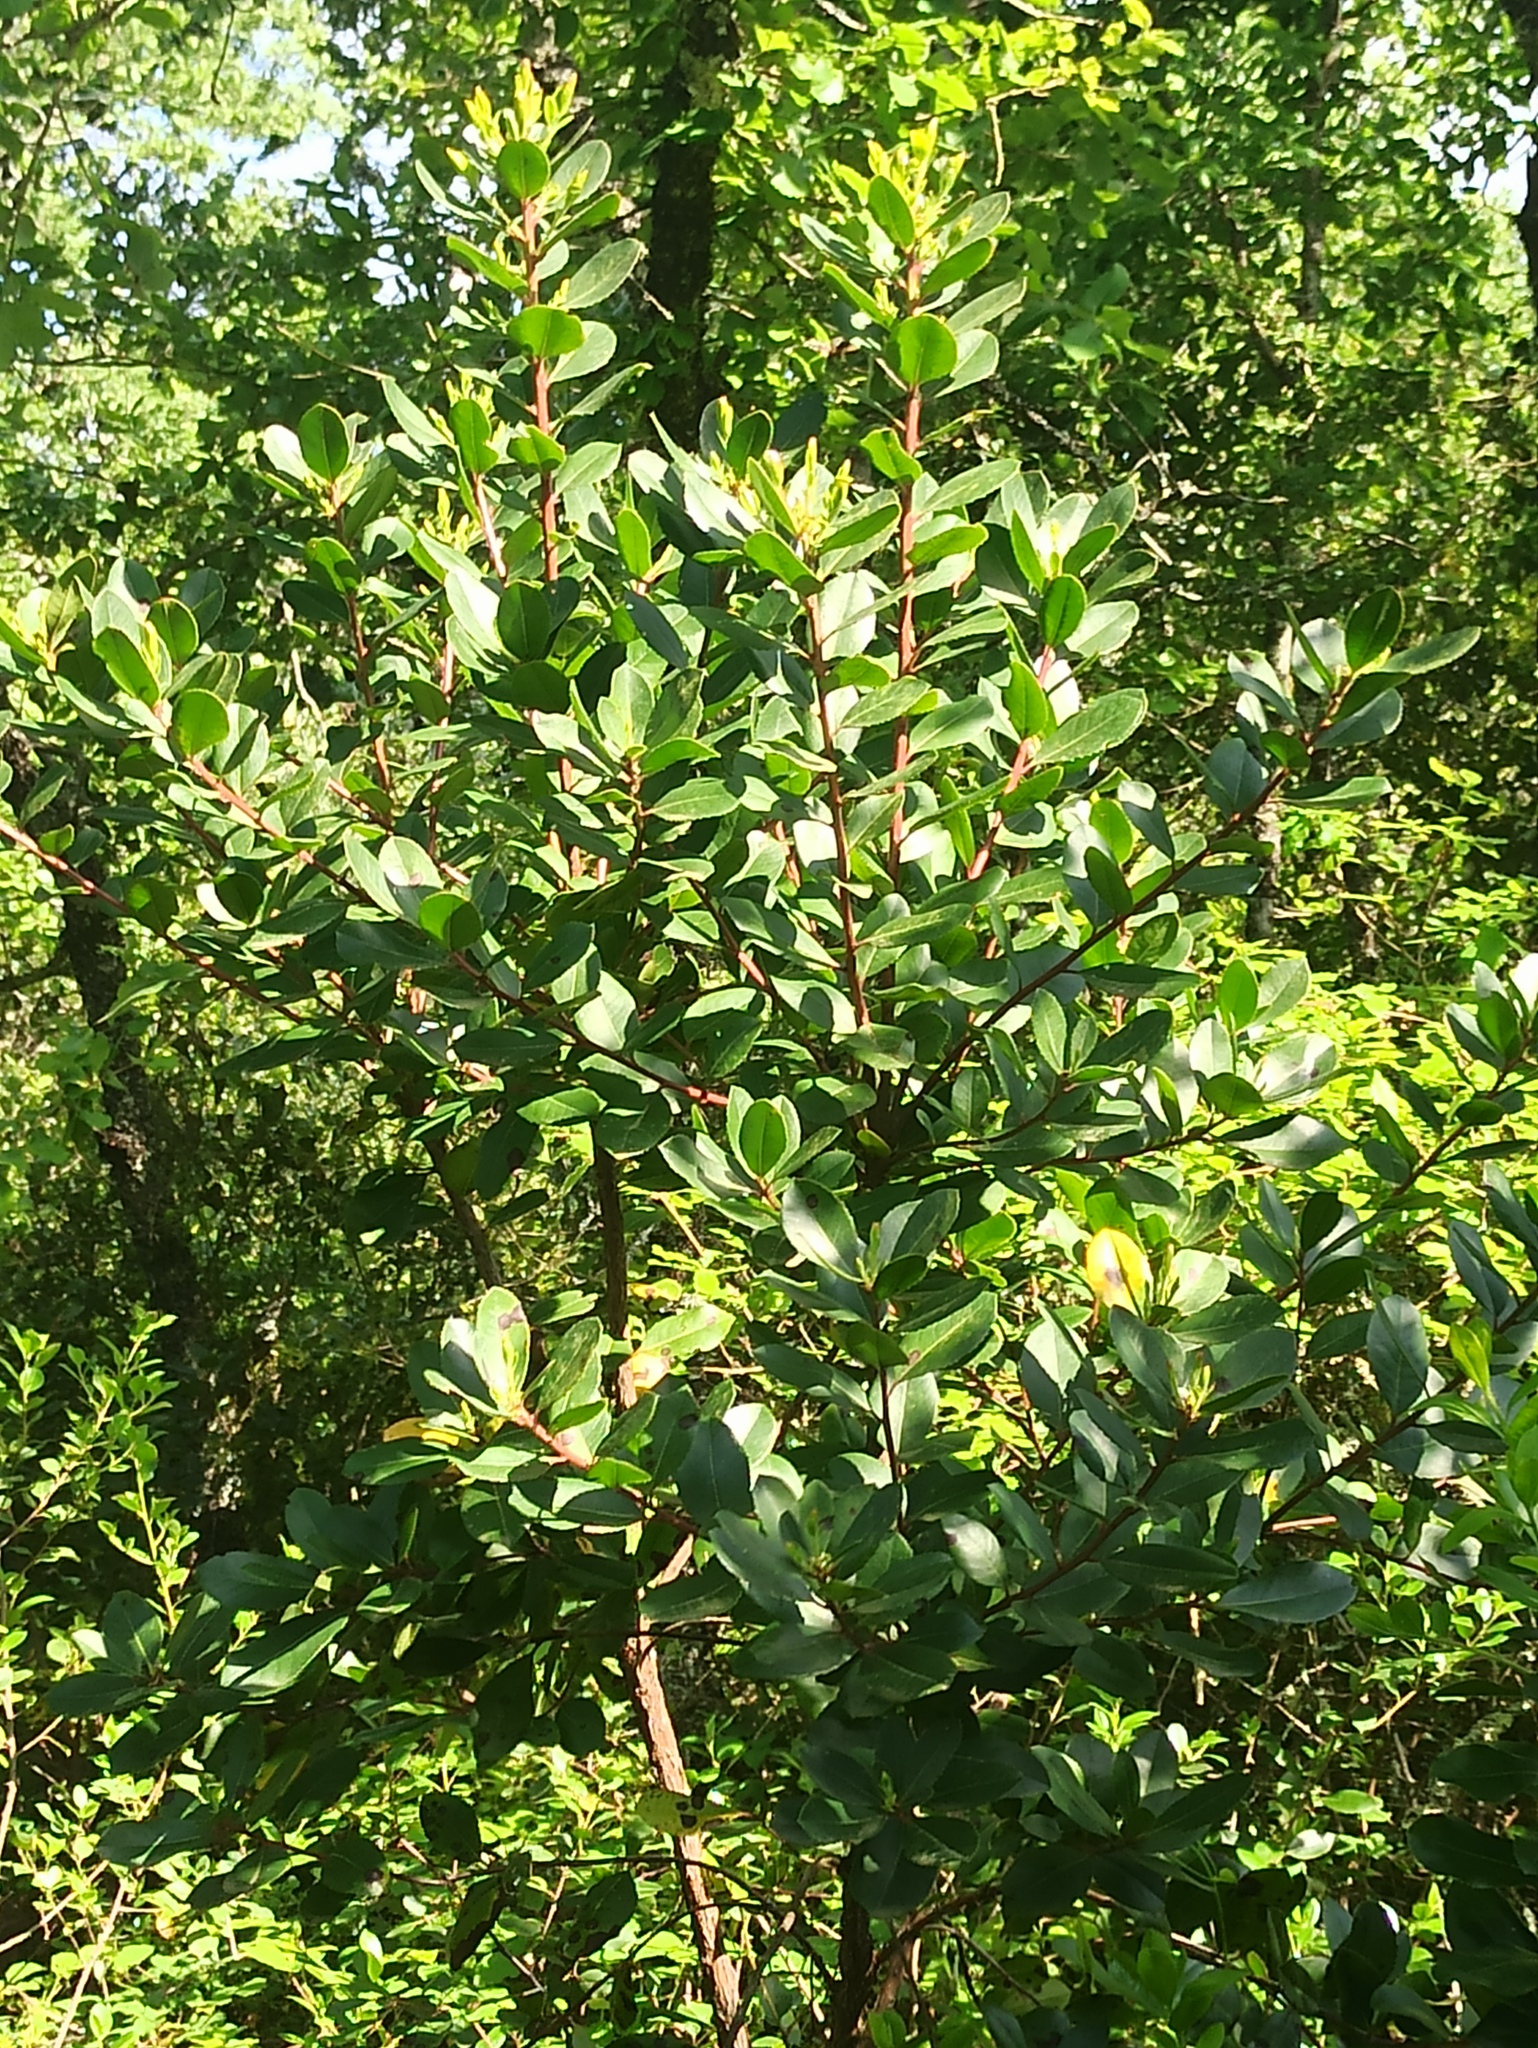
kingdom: Plantae
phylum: Tracheophyta
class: Magnoliopsida
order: Ericales
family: Ericaceae
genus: Arbutus
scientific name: Arbutus unedo
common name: Strawberry-tree
